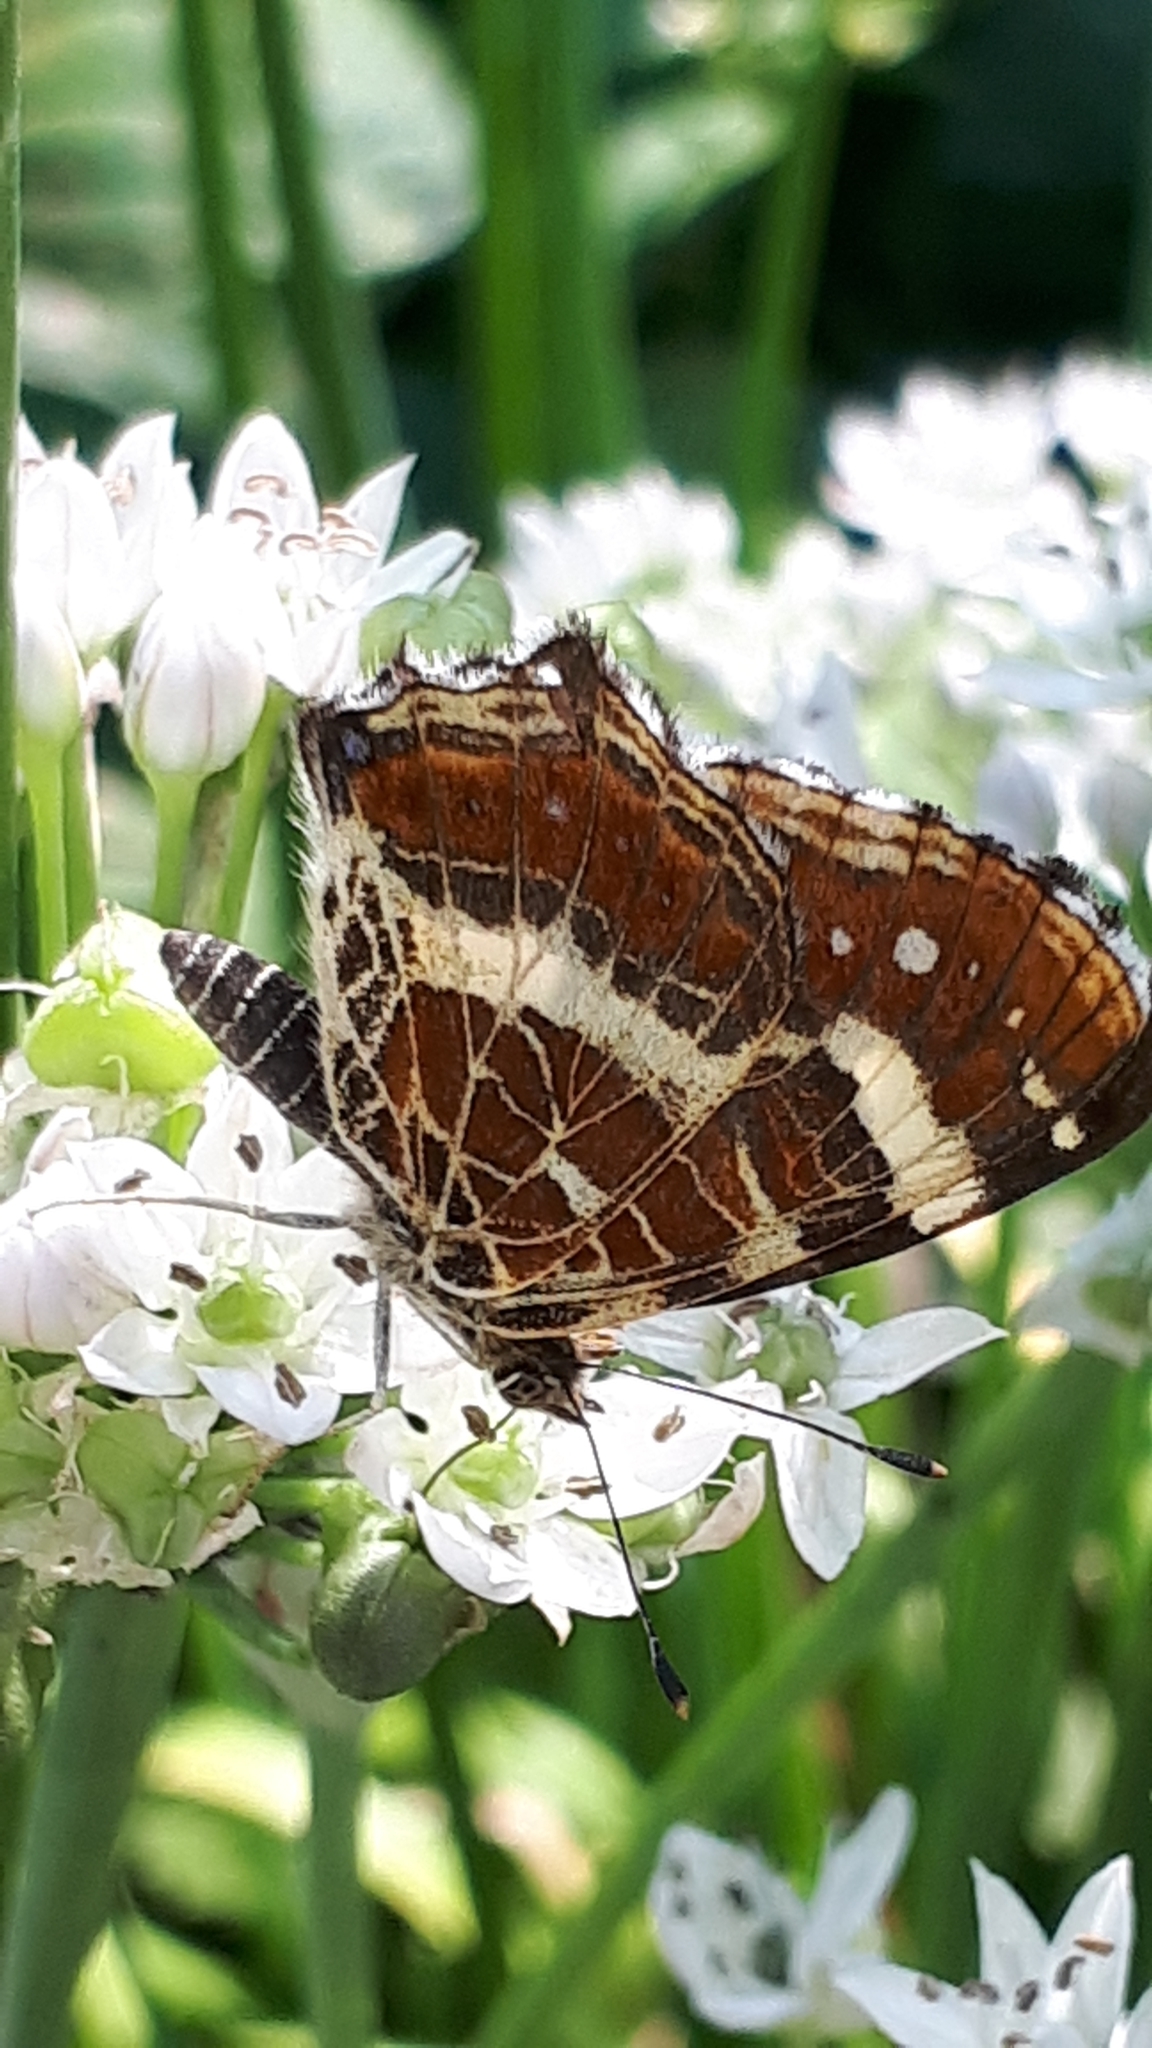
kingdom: Animalia
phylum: Arthropoda
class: Insecta
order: Lepidoptera
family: Nymphalidae
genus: Araschnia
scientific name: Araschnia levana
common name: Map butterfly
